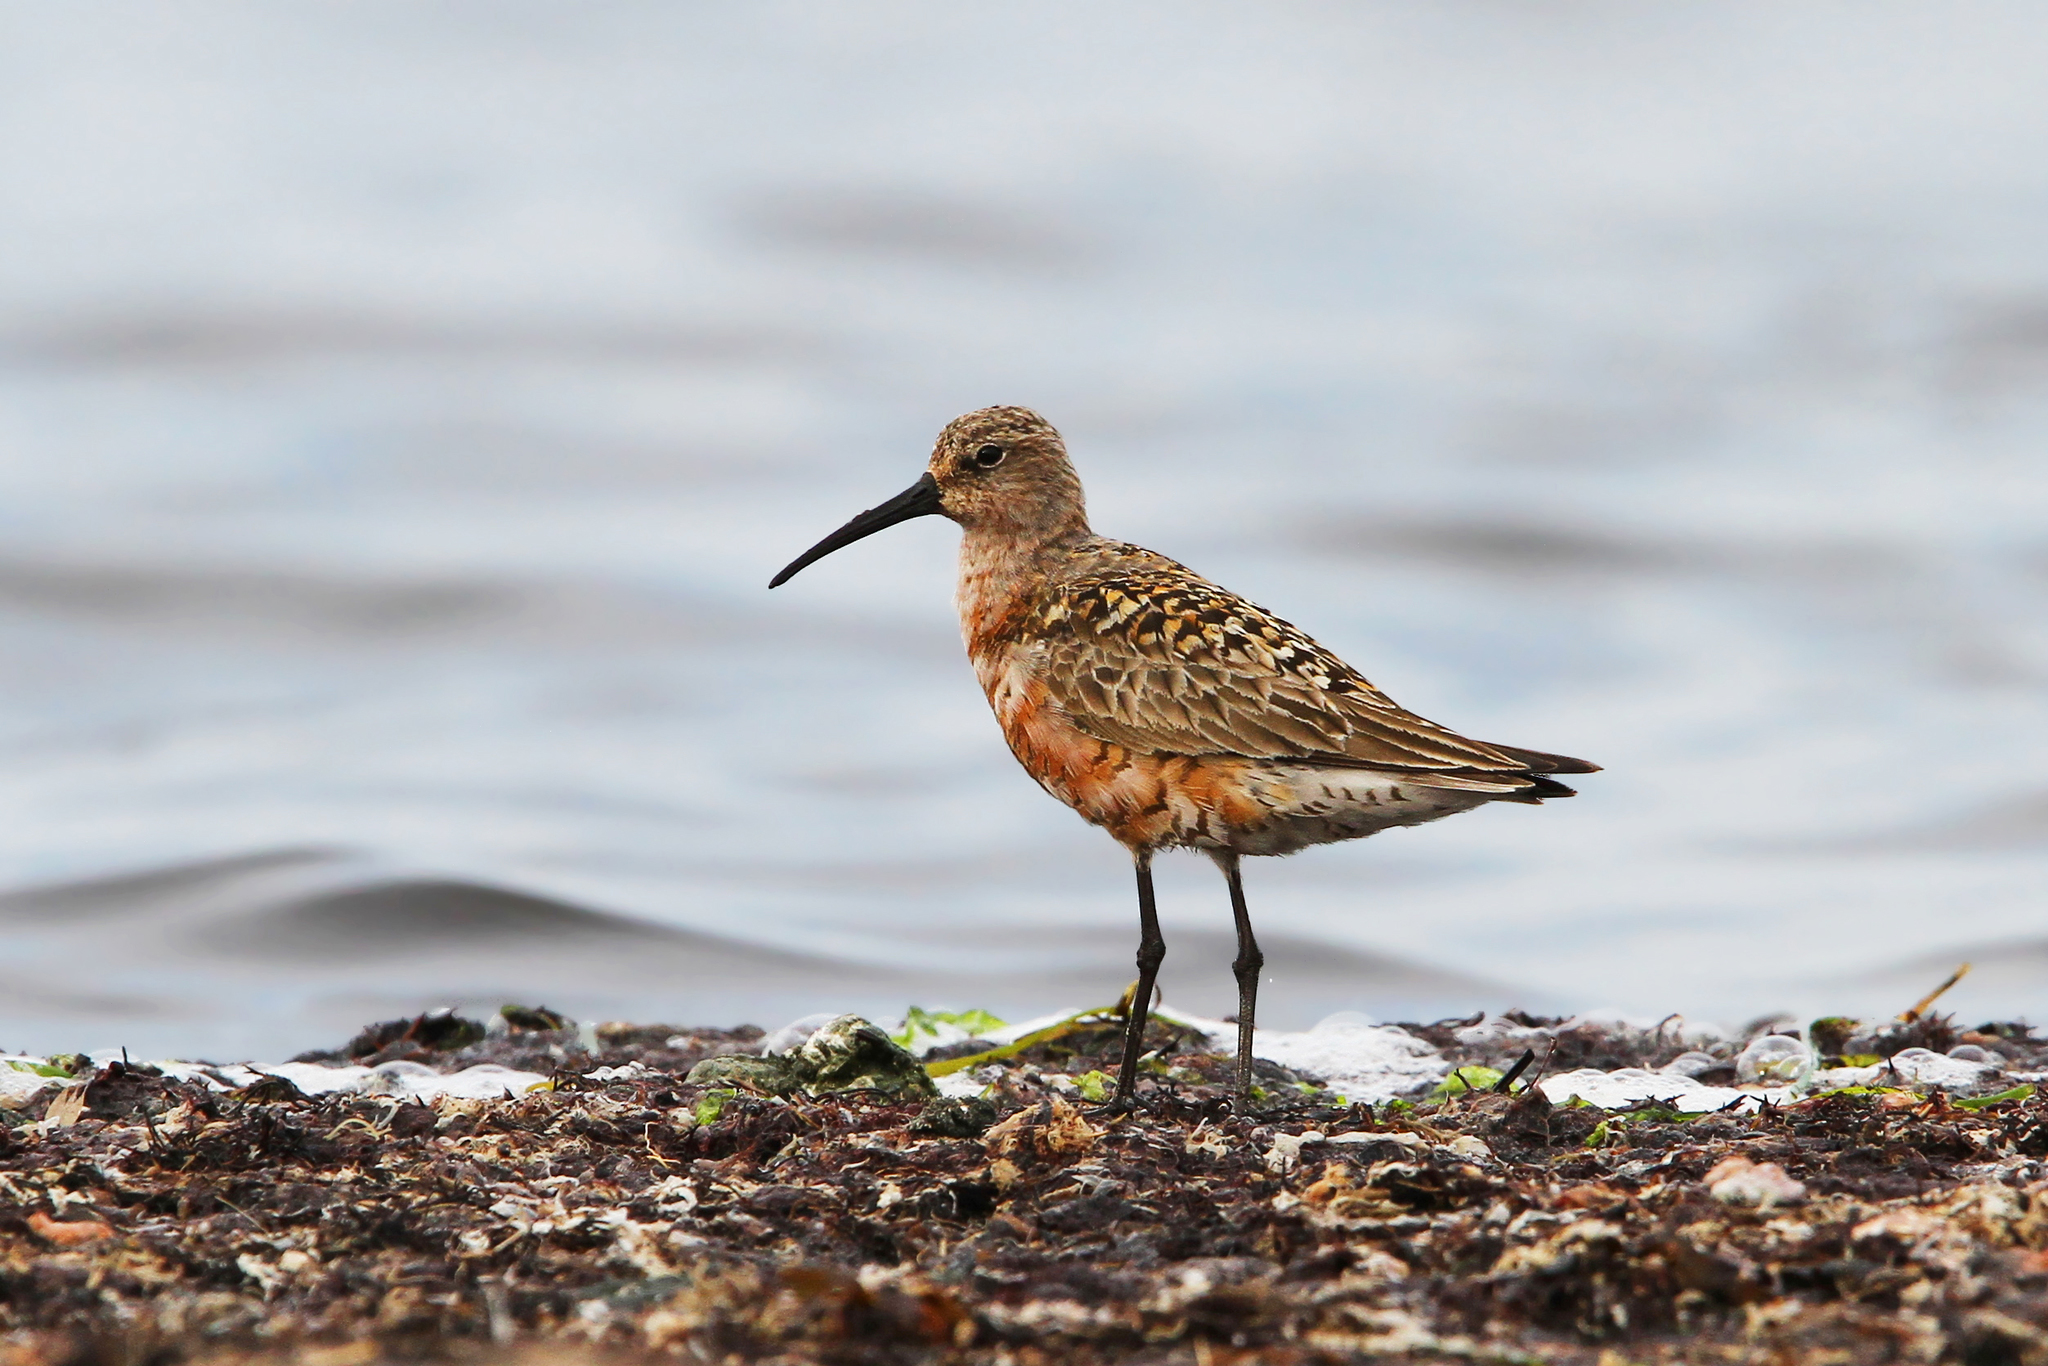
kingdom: Animalia
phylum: Chordata
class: Aves
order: Charadriiformes
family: Scolopacidae
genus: Calidris
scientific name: Calidris ferruginea
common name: Curlew sandpiper
